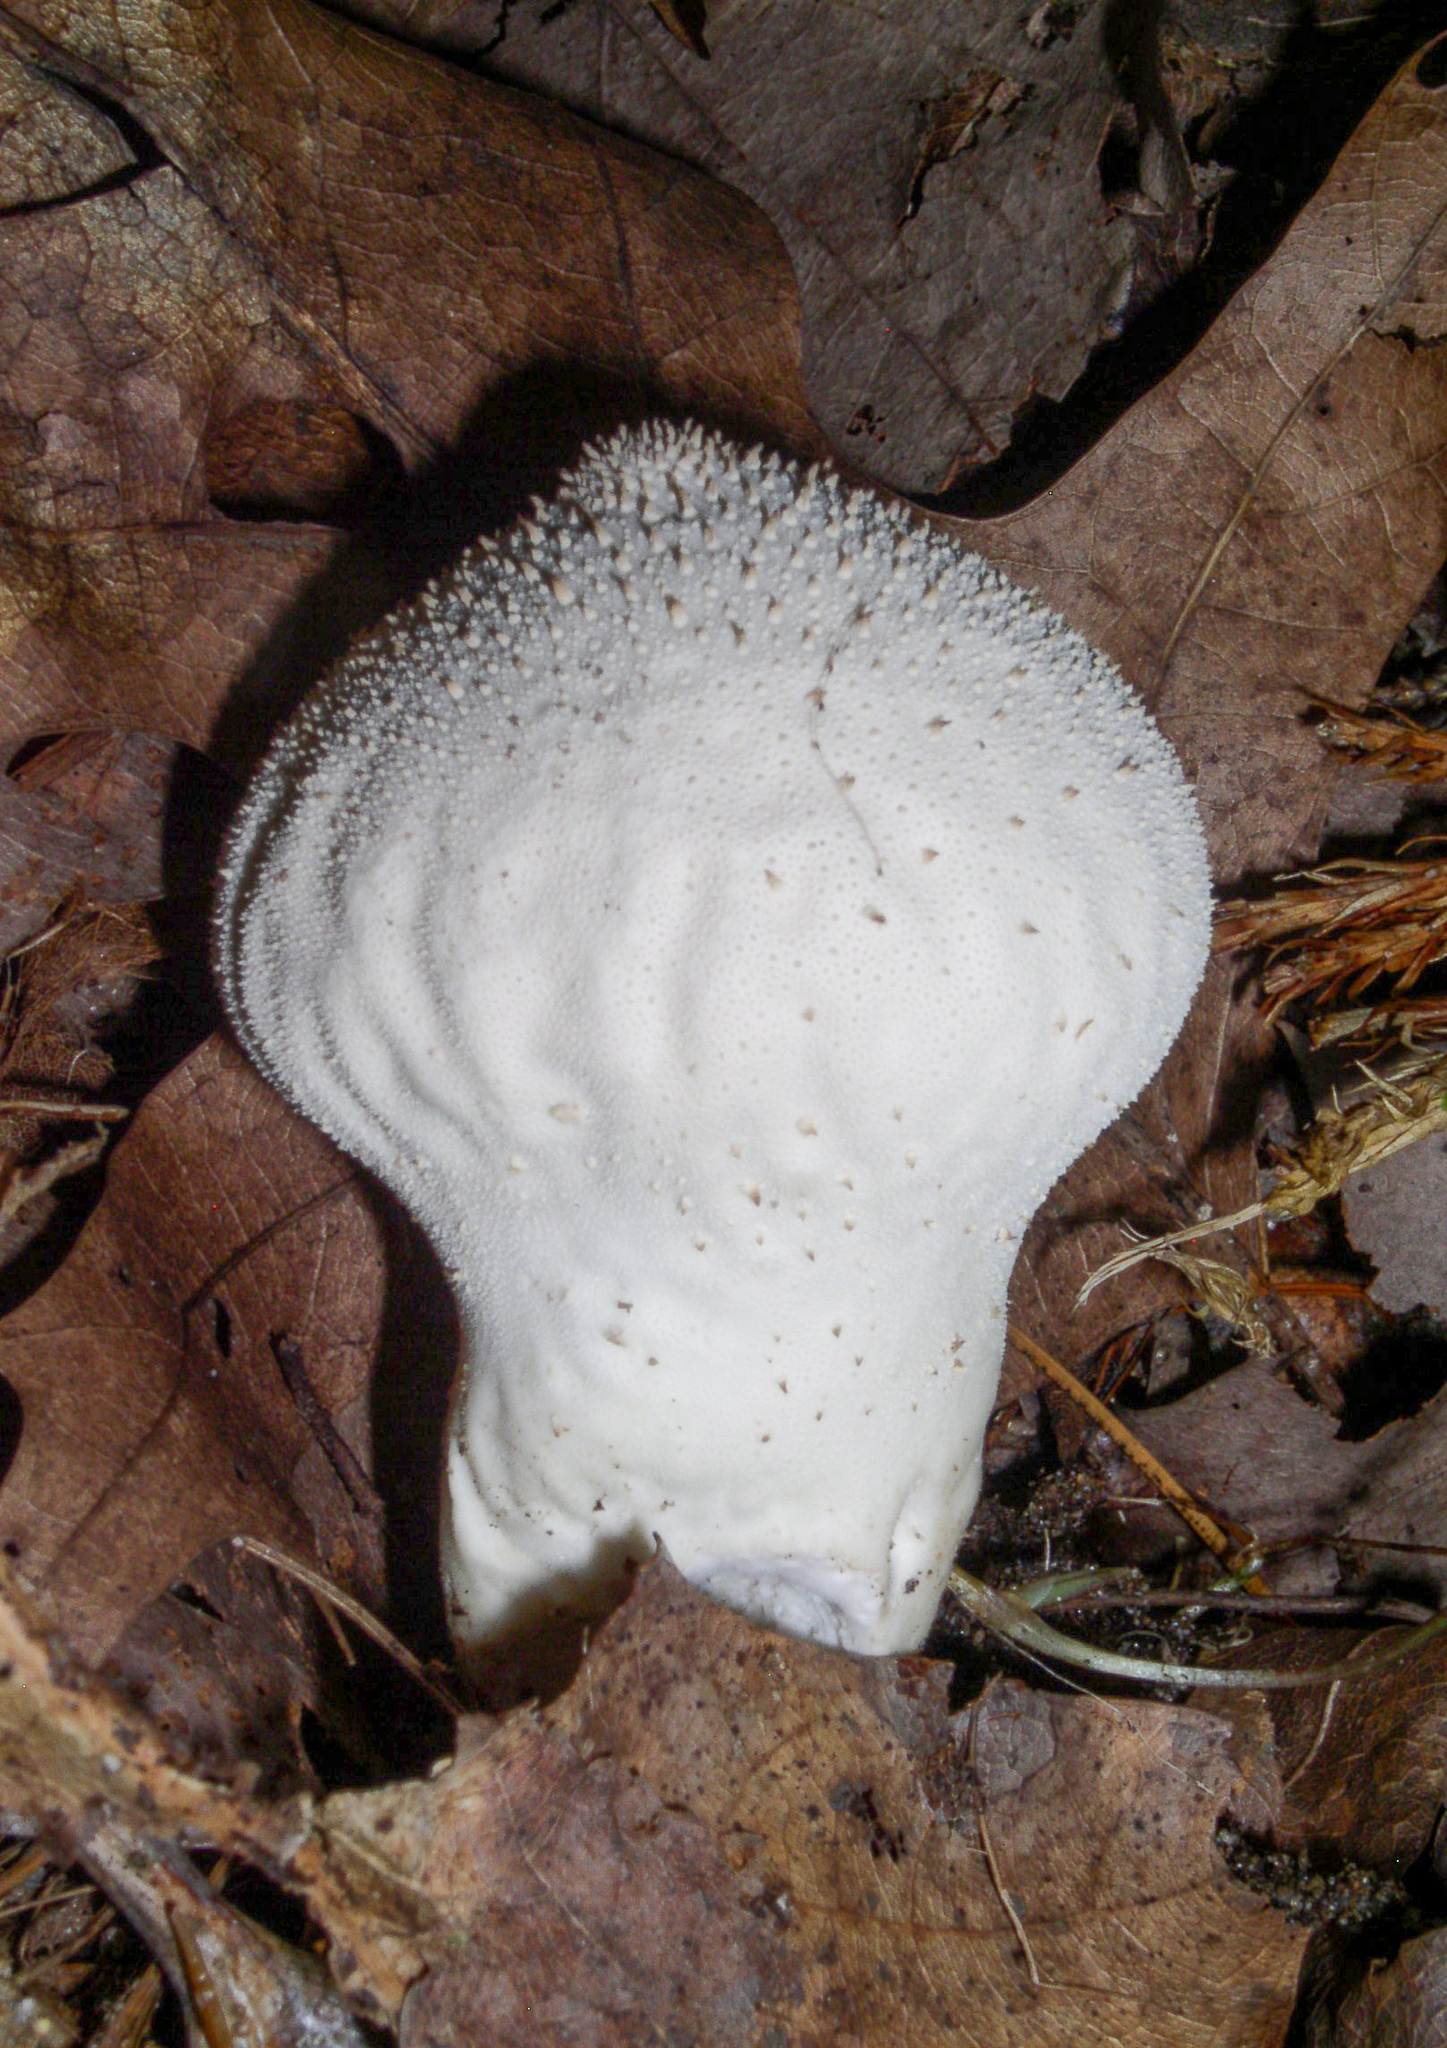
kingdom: Fungi
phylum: Basidiomycota
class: Agaricomycetes
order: Agaricales
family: Lycoperdaceae
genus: Lycoperdon
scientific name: Lycoperdon perlatum
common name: Common puffball
